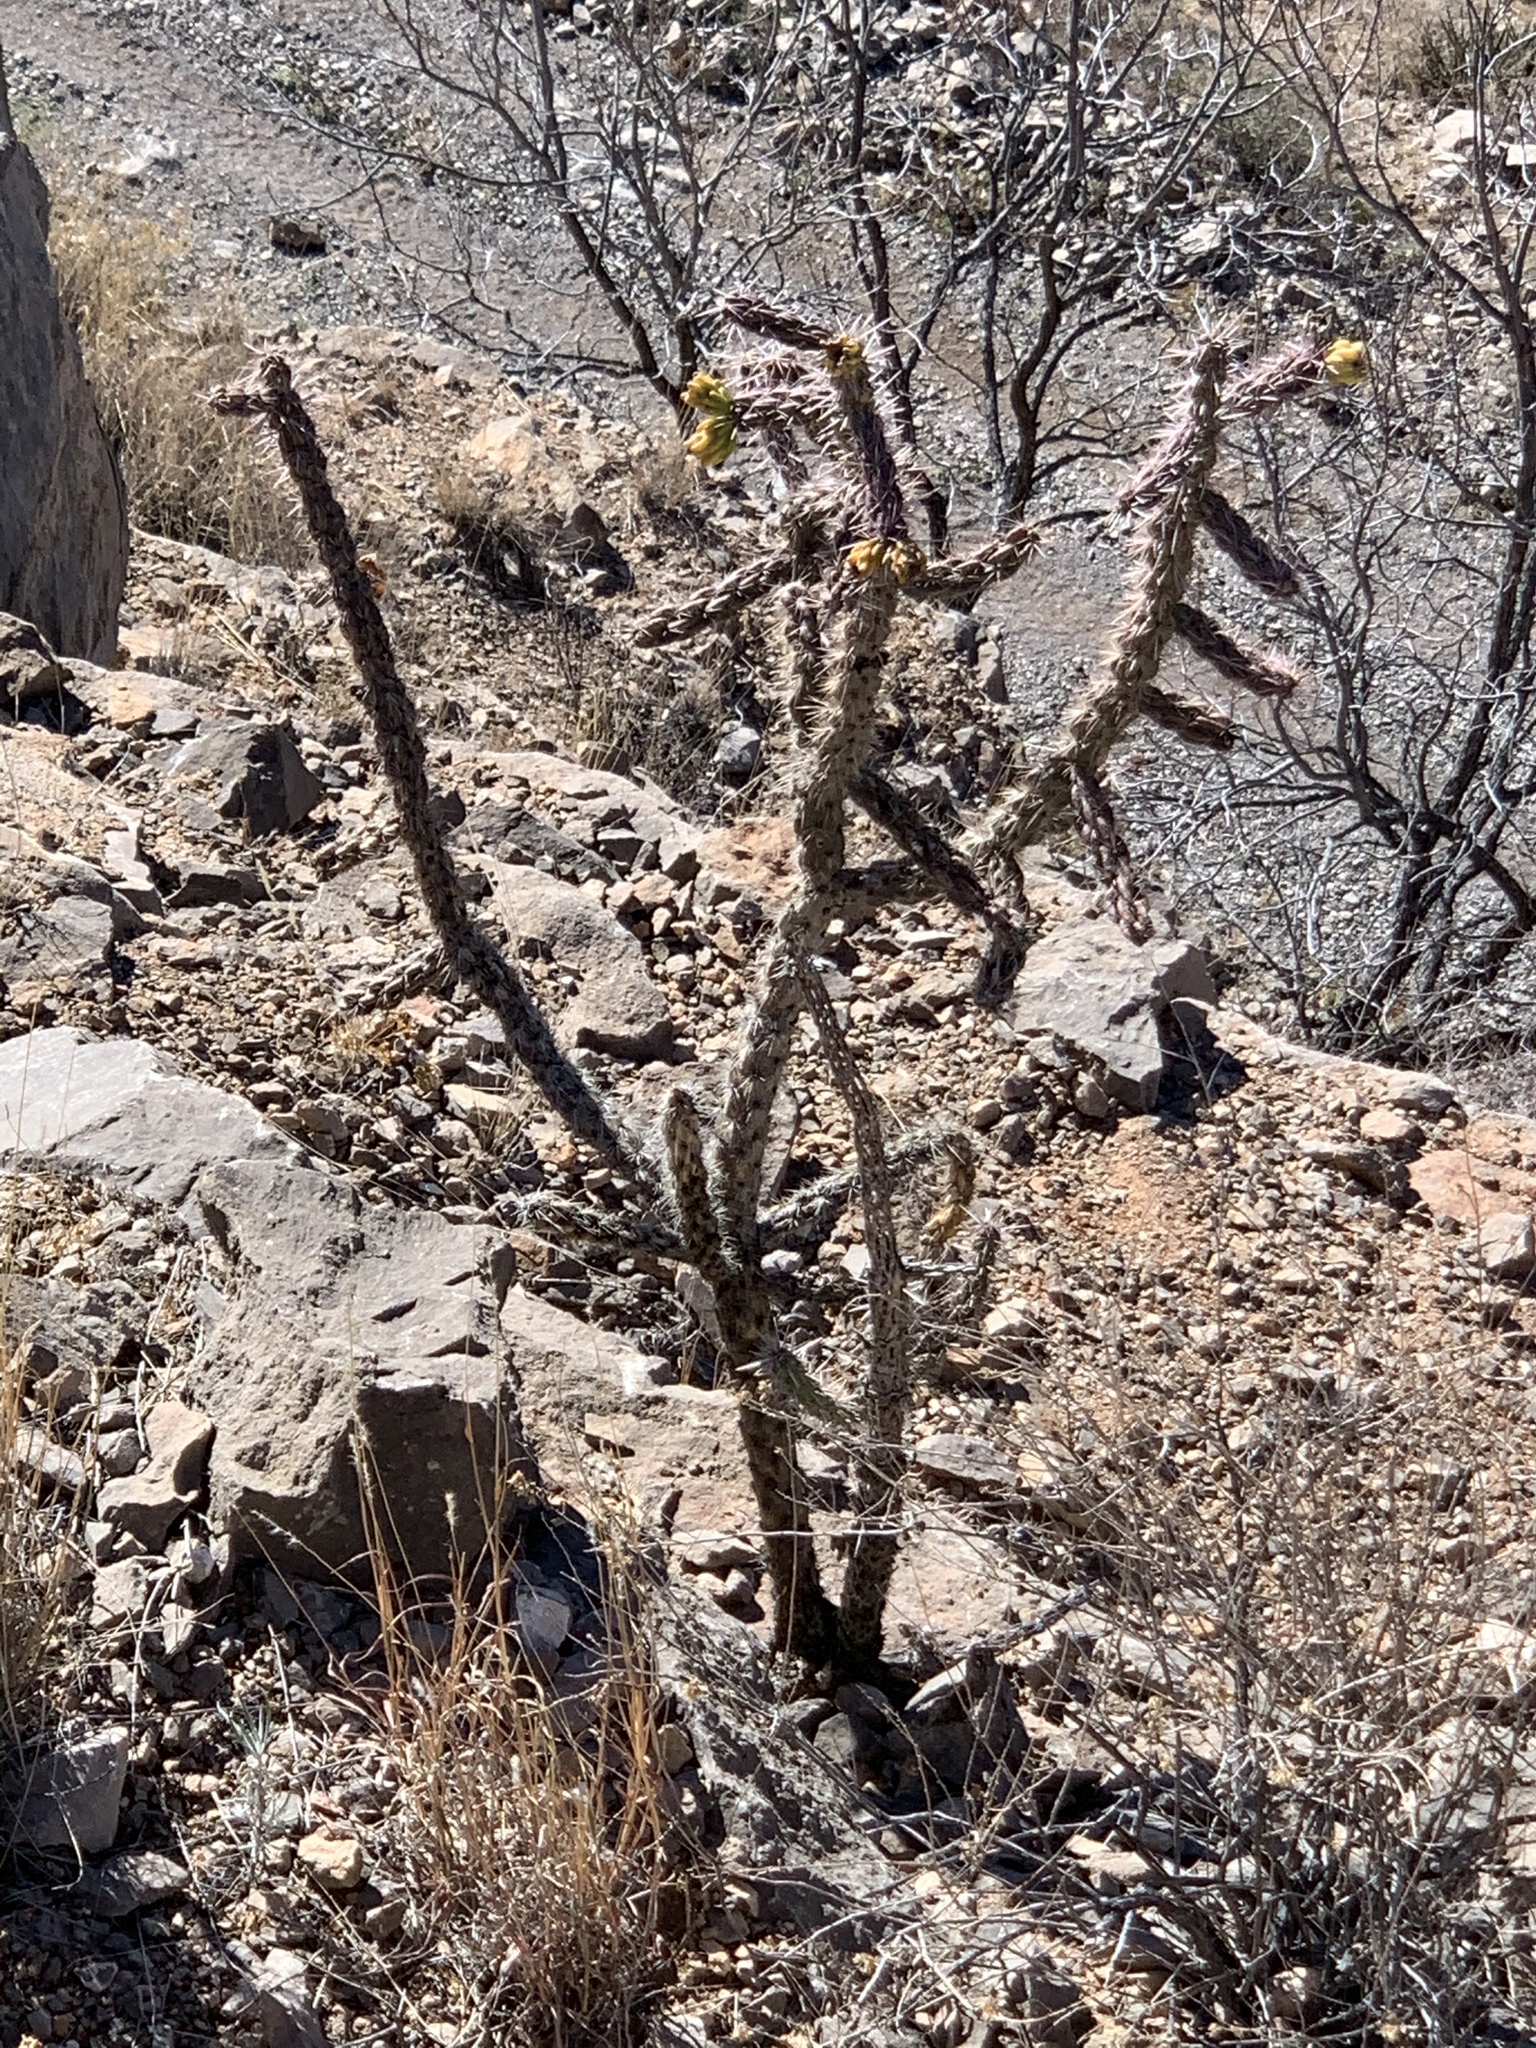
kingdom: Plantae
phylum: Tracheophyta
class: Magnoliopsida
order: Caryophyllales
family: Cactaceae
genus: Cylindropuntia
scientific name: Cylindropuntia imbricata
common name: Candelabrum cactus
